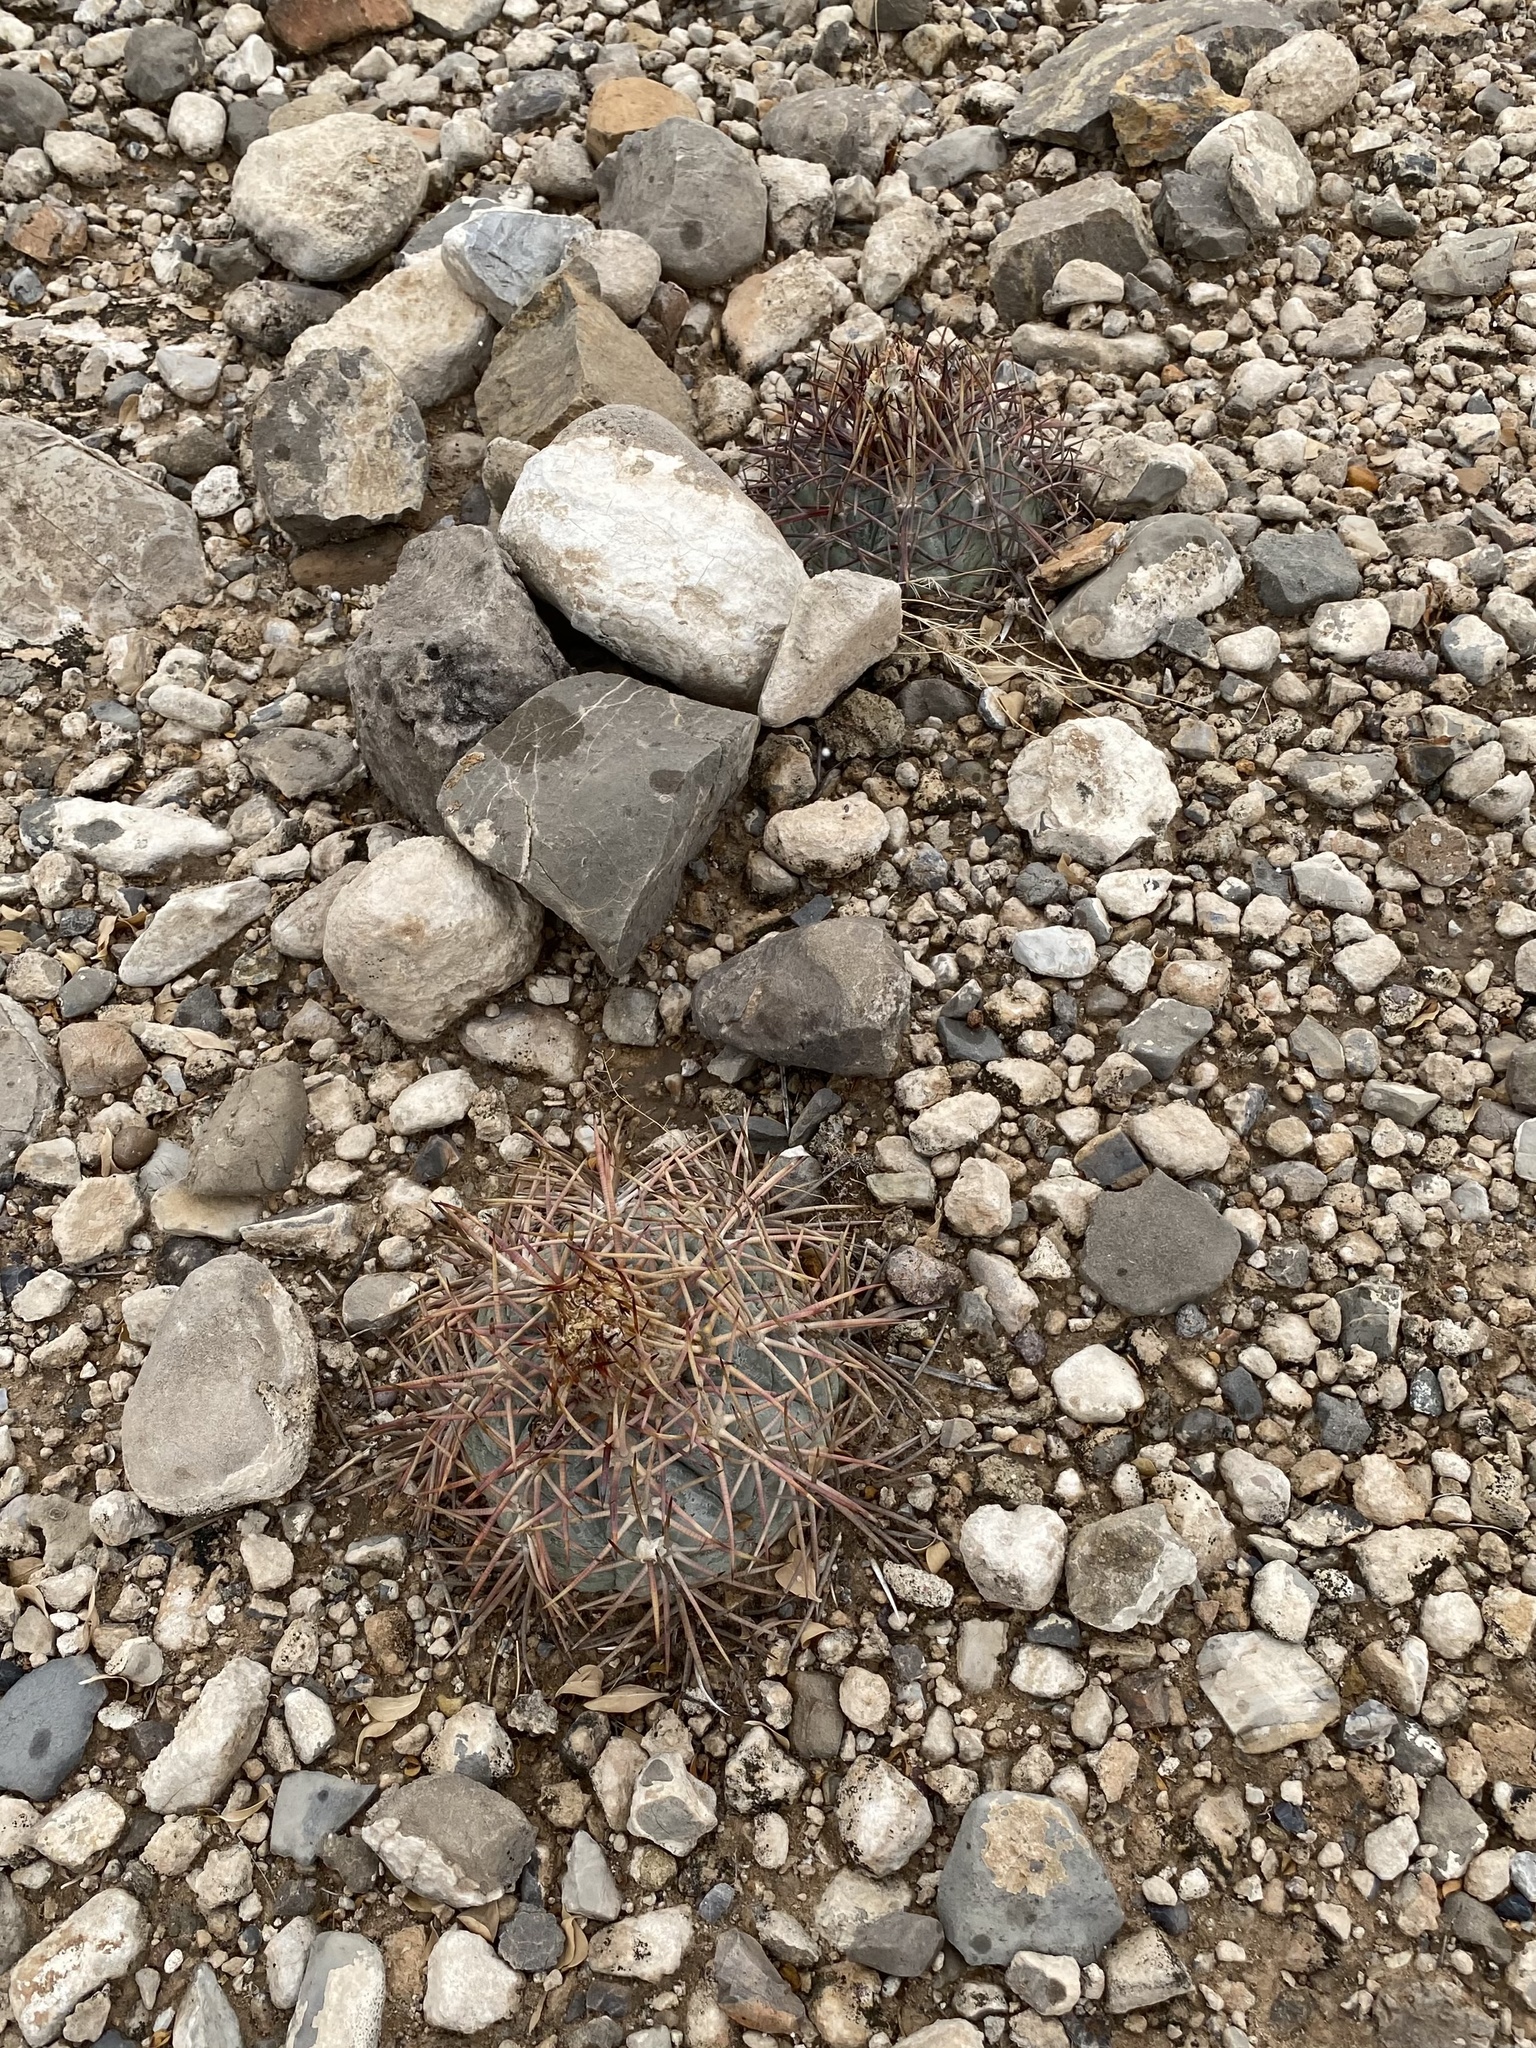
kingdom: Plantae
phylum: Tracheophyta
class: Magnoliopsida
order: Caryophyllales
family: Cactaceae
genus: Echinocactus
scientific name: Echinocactus horizonthalonius
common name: Devilshead
